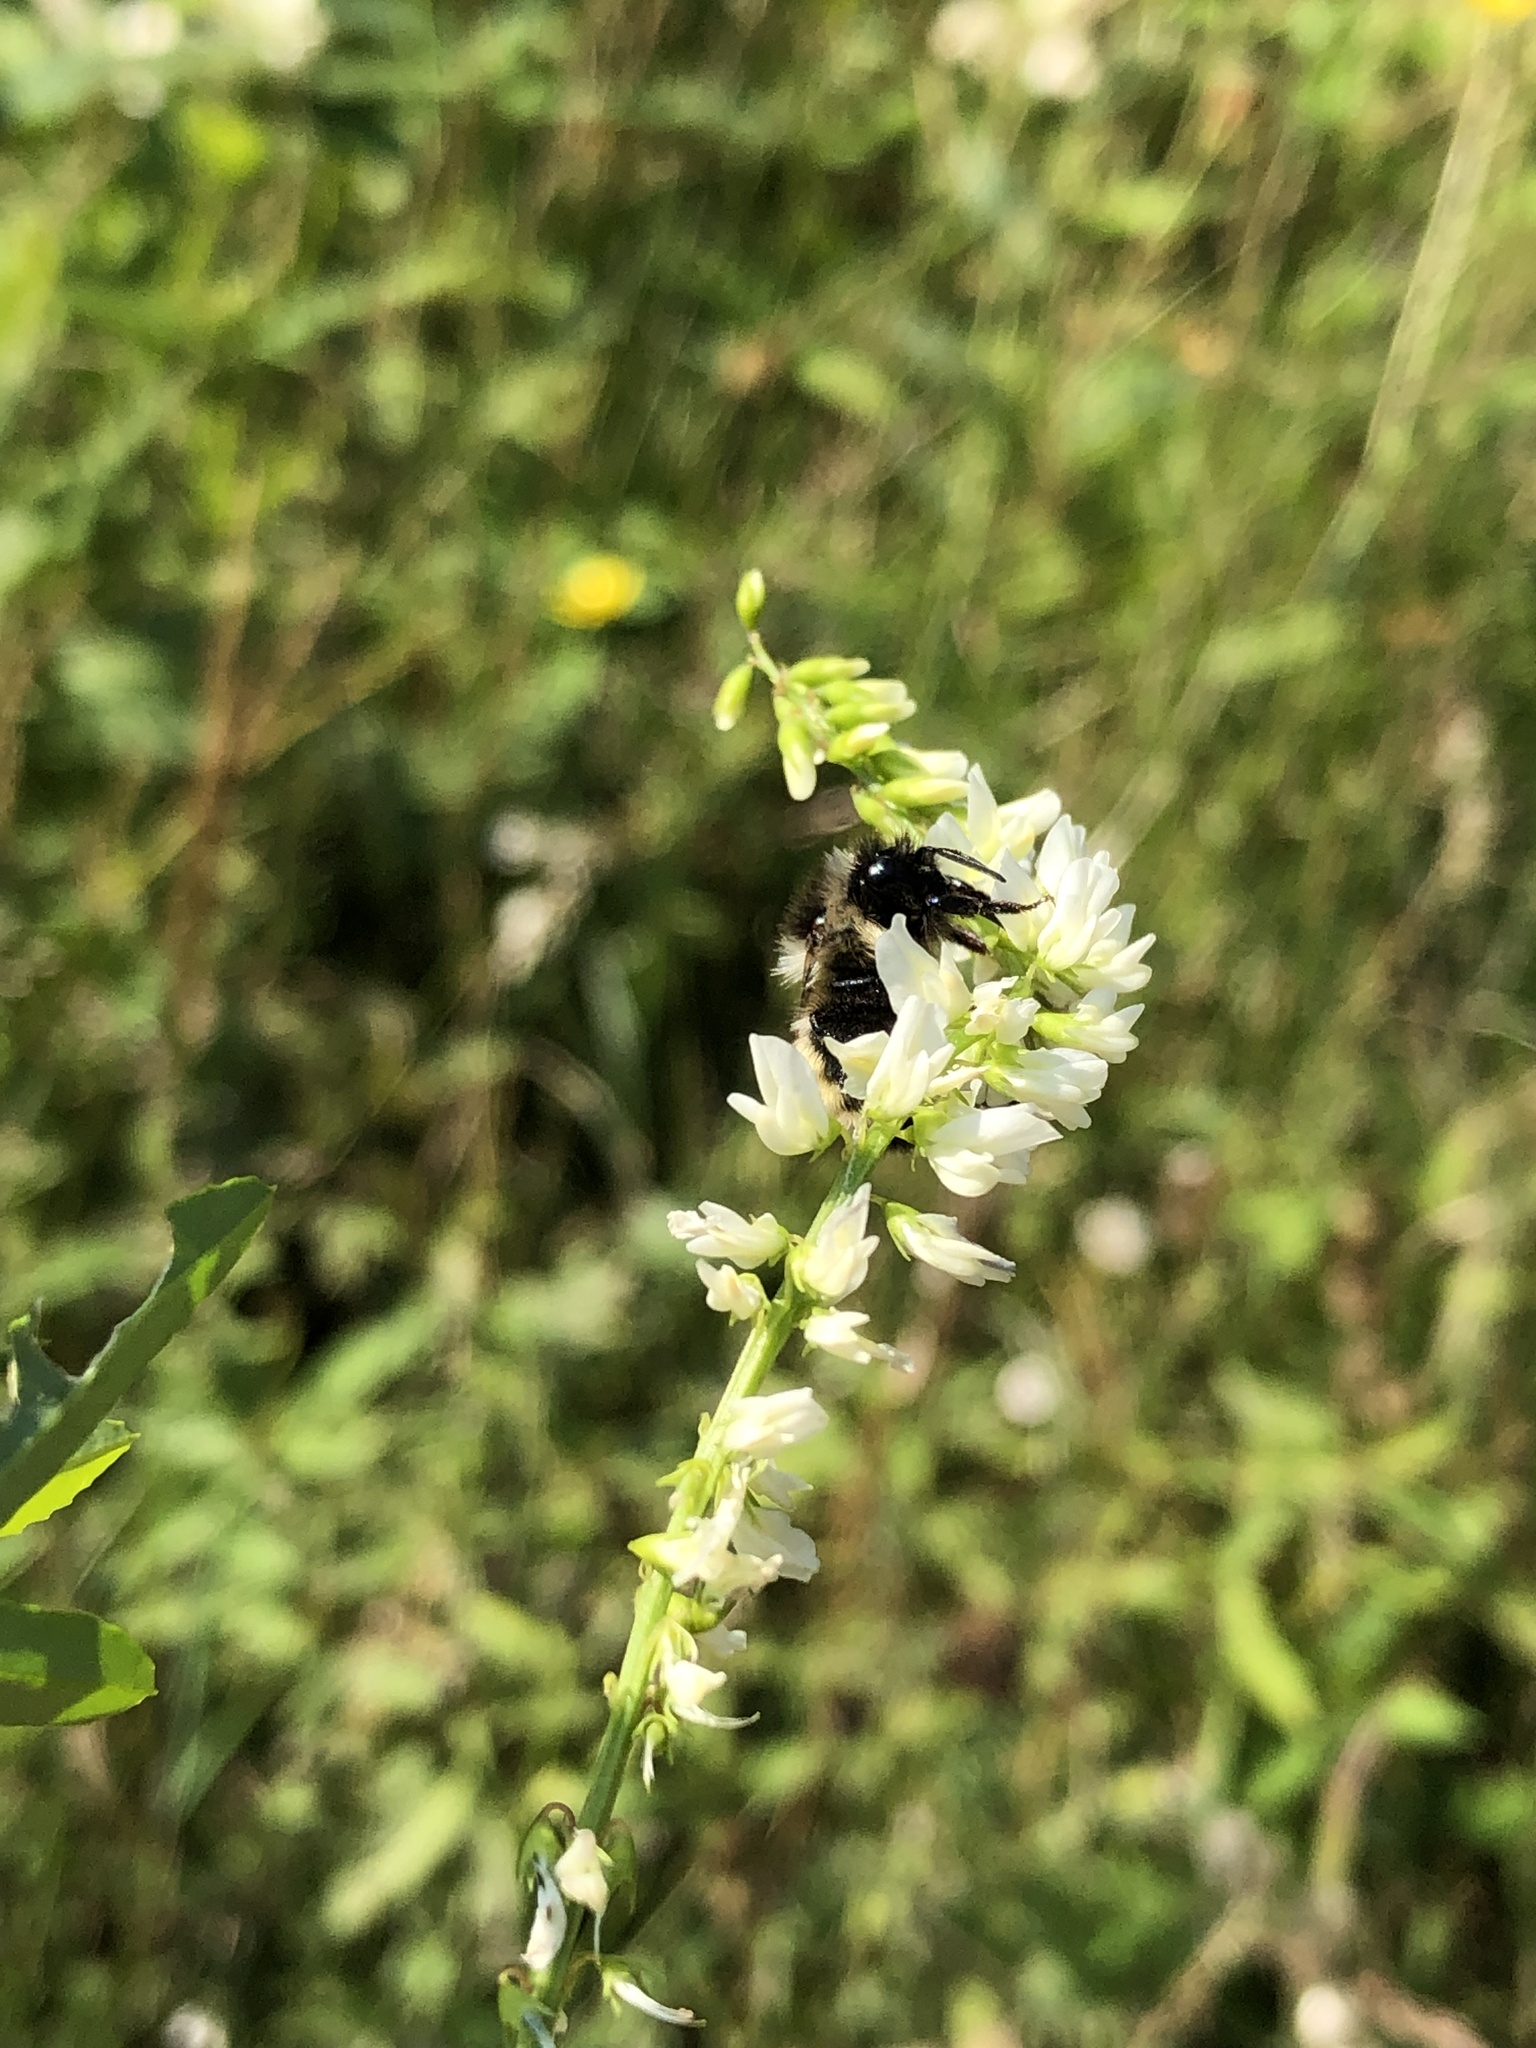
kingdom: Animalia
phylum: Arthropoda
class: Insecta
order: Hymenoptera
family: Apidae
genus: Bombus
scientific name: Bombus ternarius
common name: Tri-colored bumble bee
